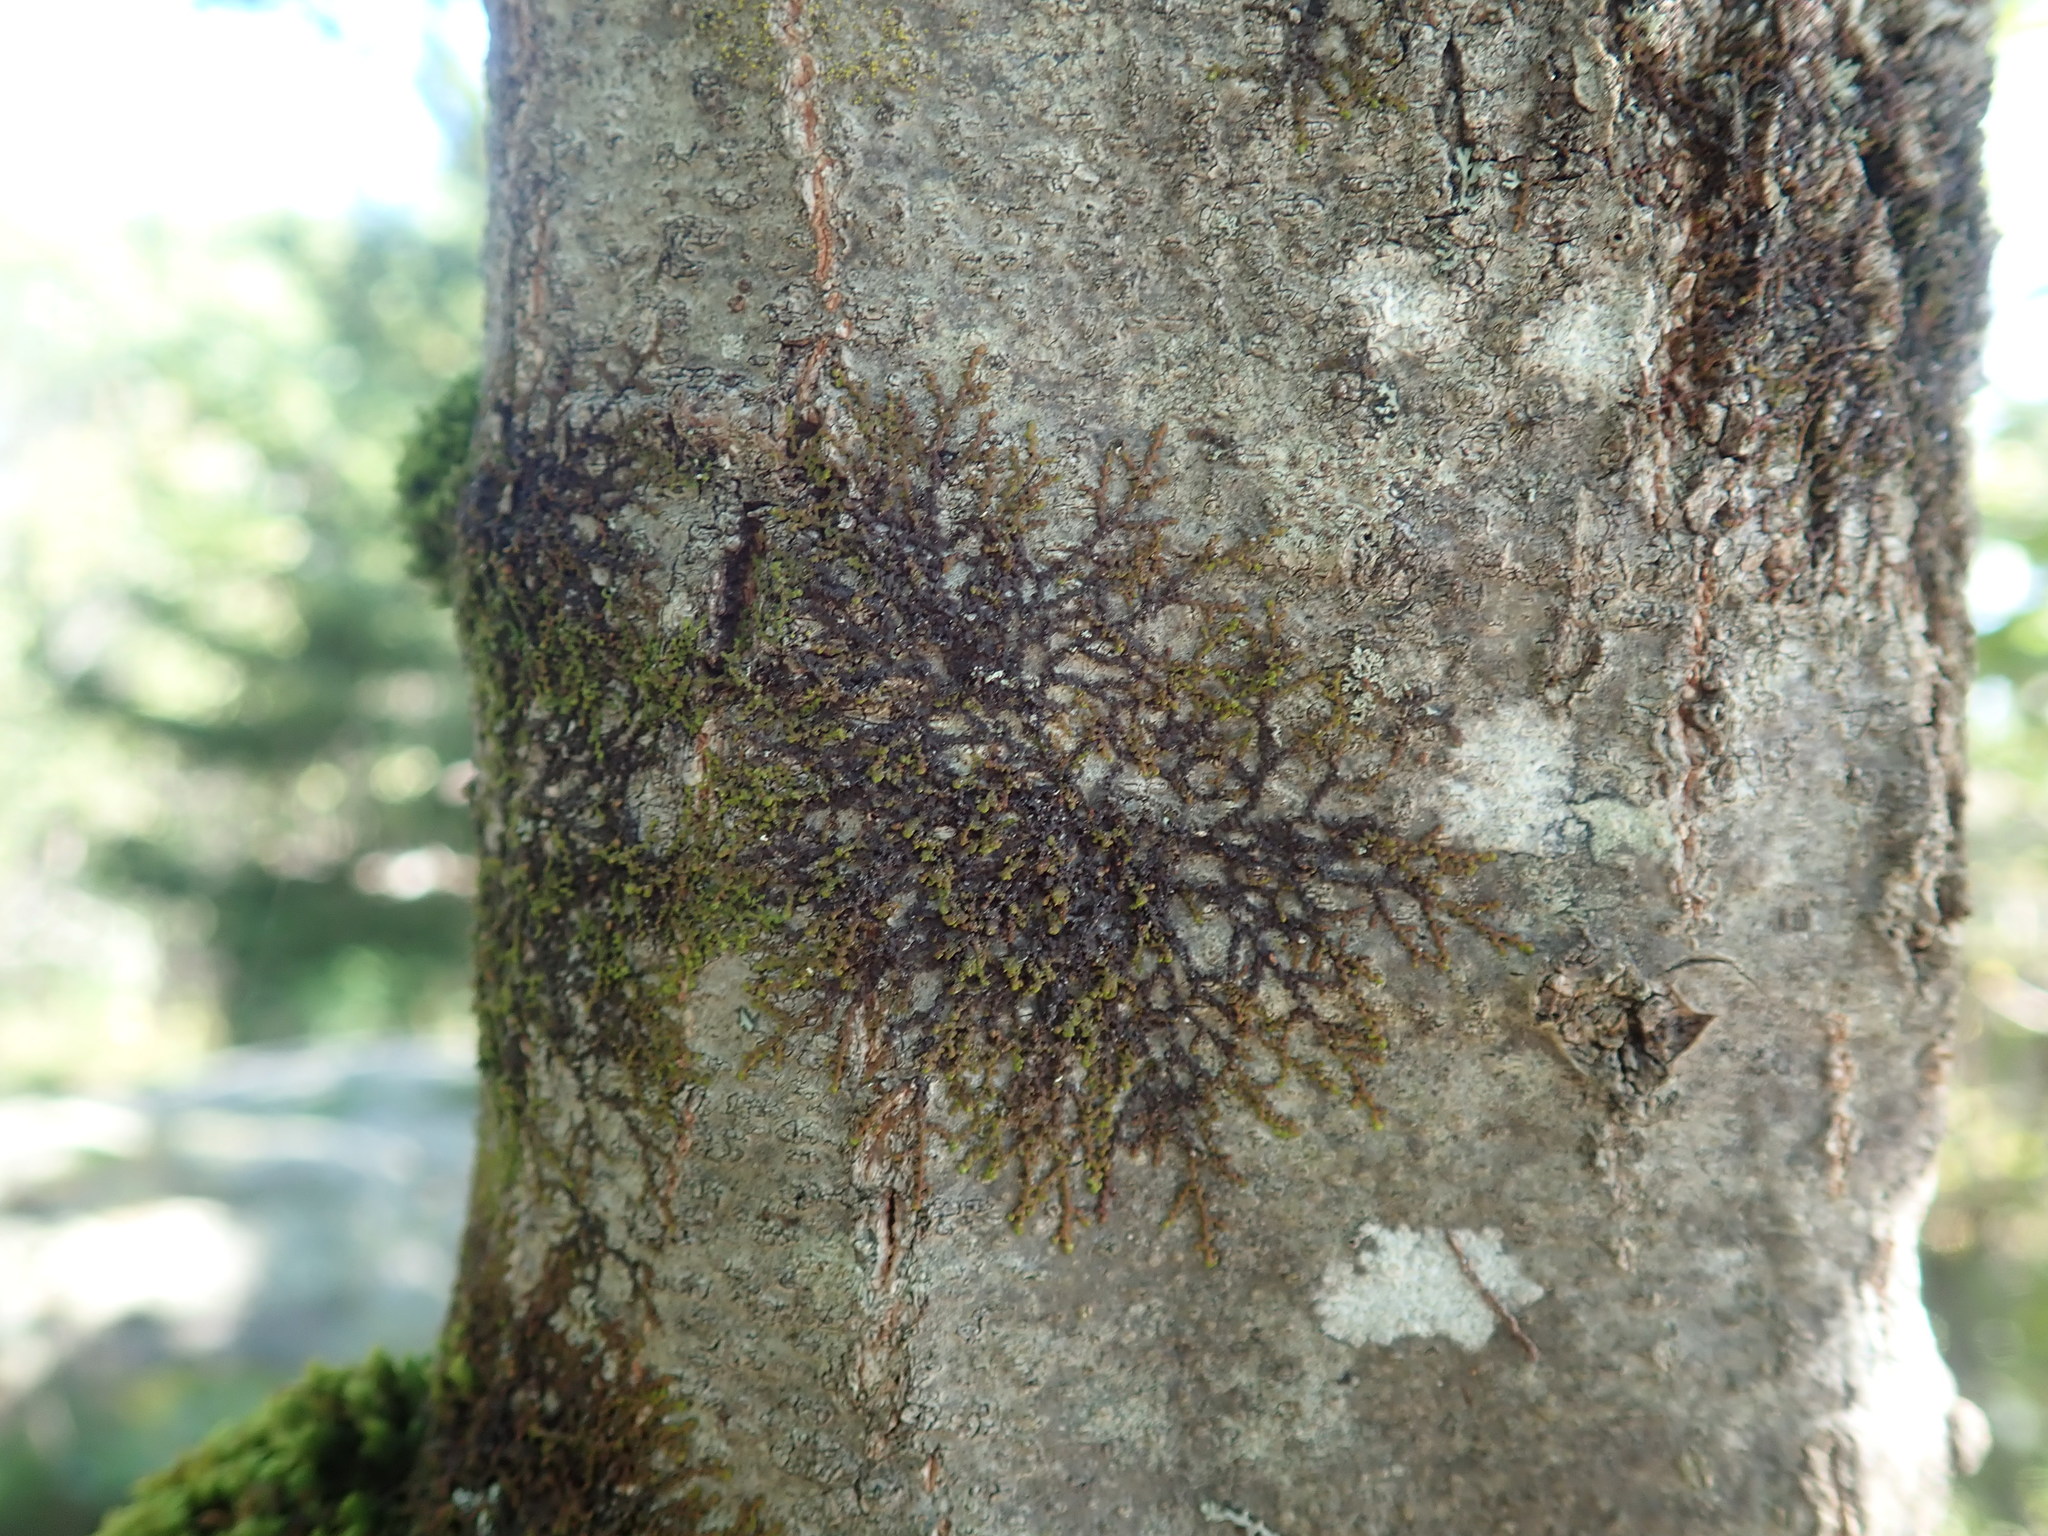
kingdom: Plantae
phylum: Marchantiophyta
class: Jungermanniopsida
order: Porellales
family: Frullaniaceae
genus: Frullania
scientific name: Frullania
